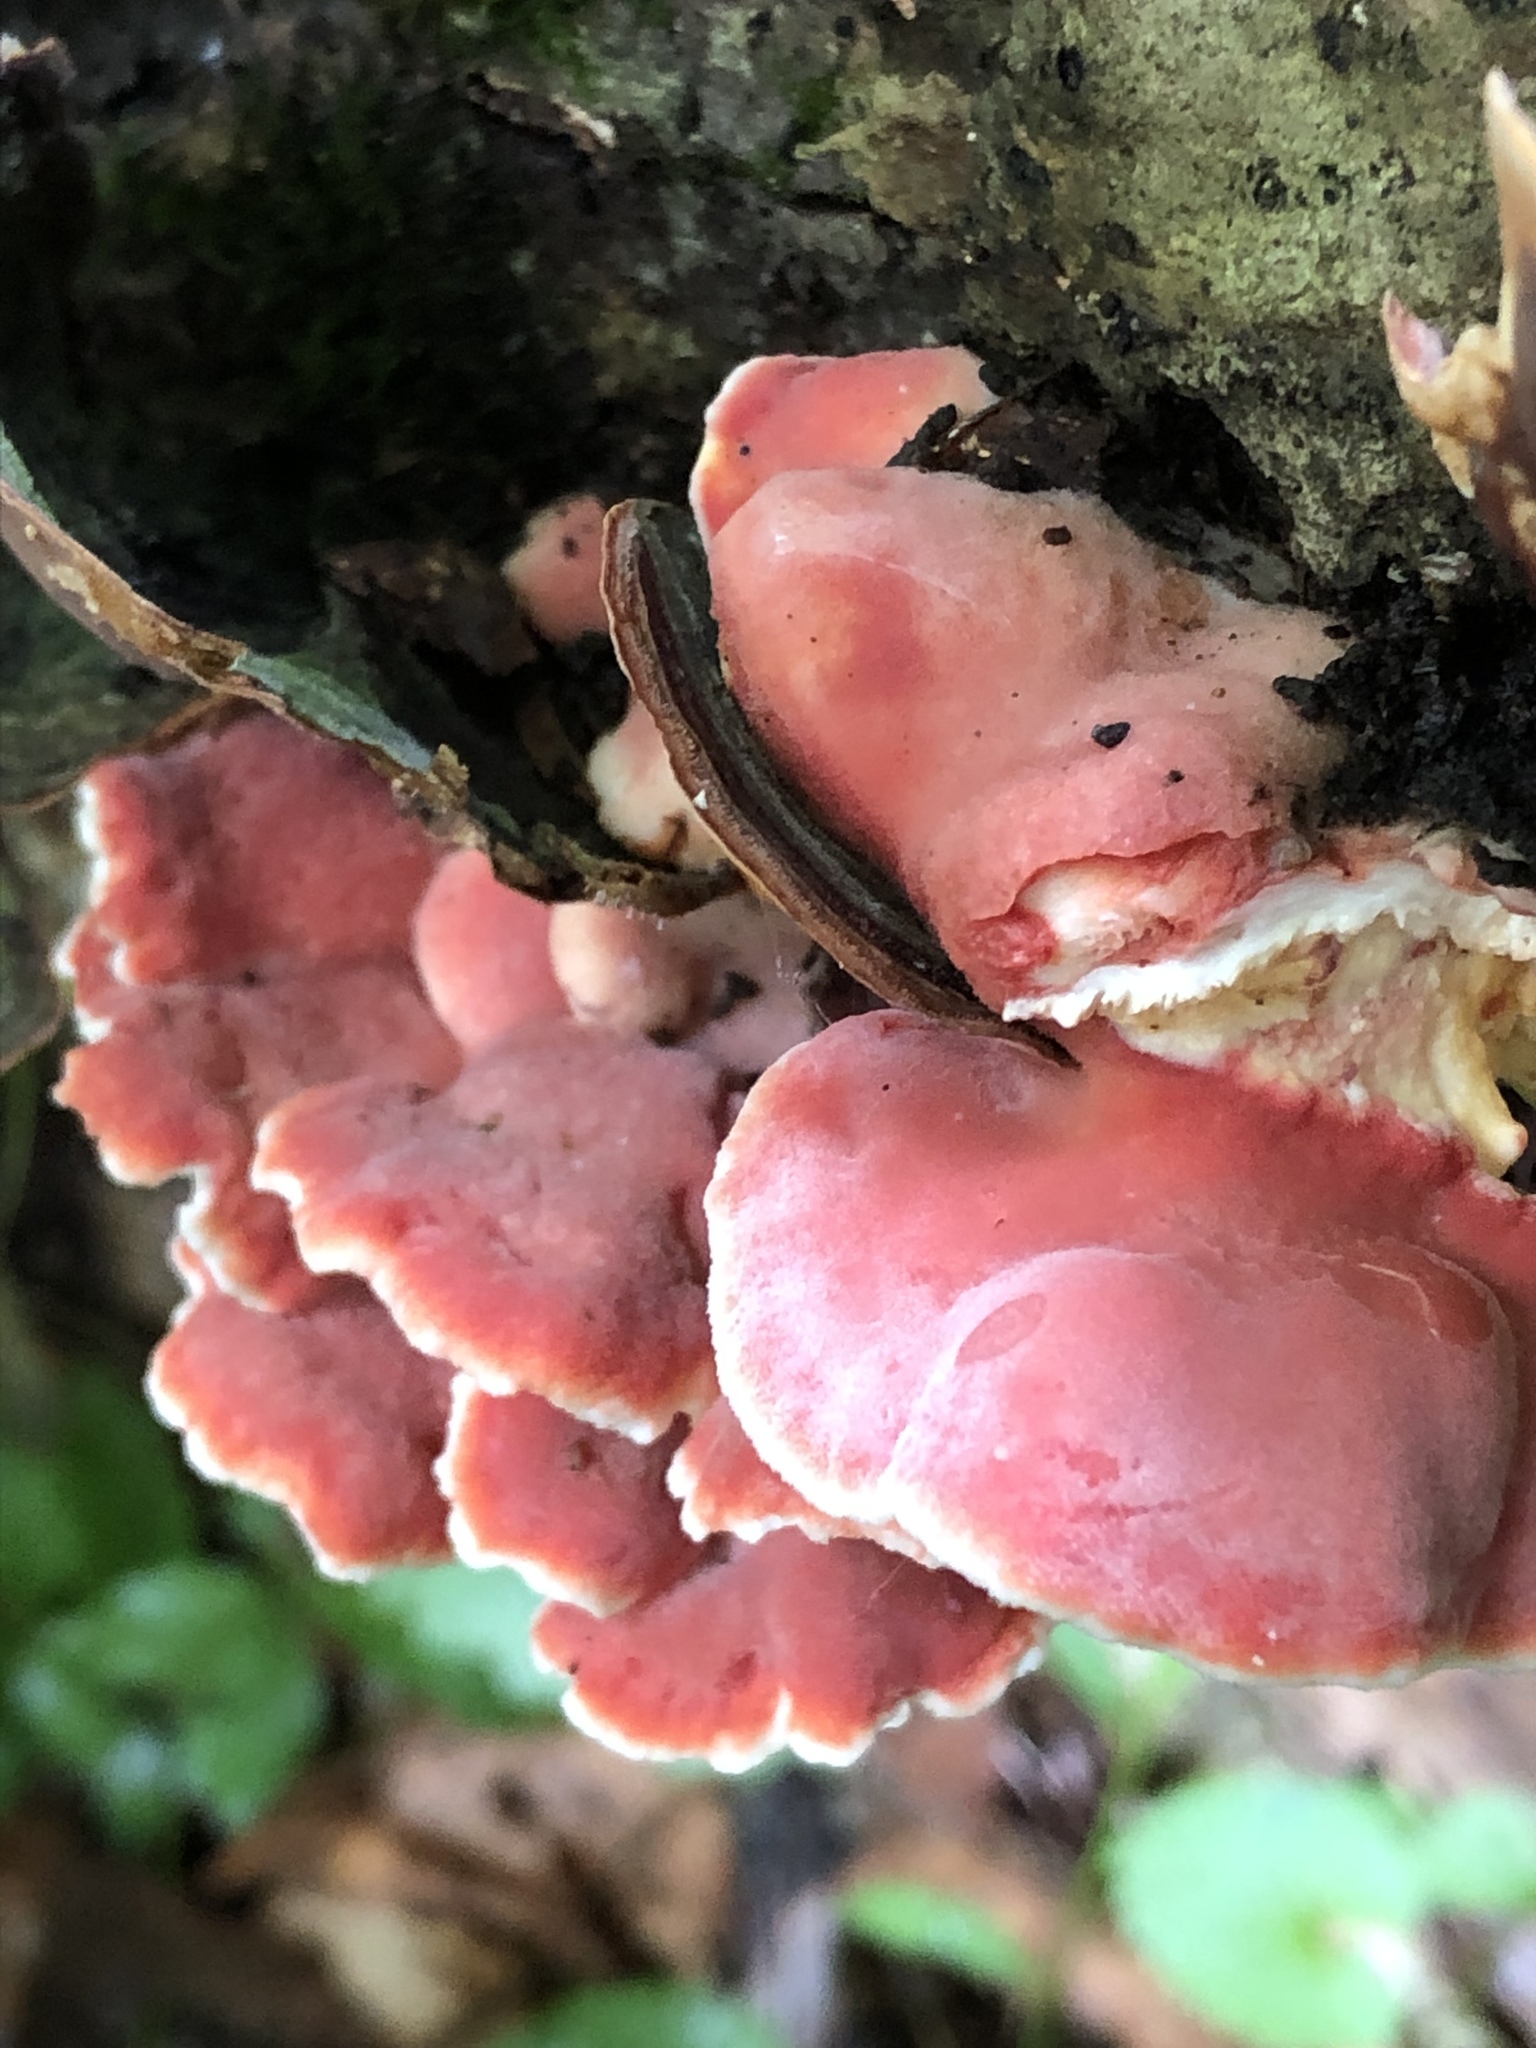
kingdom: Fungi
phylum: Basidiomycota
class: Agaricomycetes
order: Polyporales
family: Irpicaceae
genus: Byssomerulius
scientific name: Byssomerulius incarnatus
